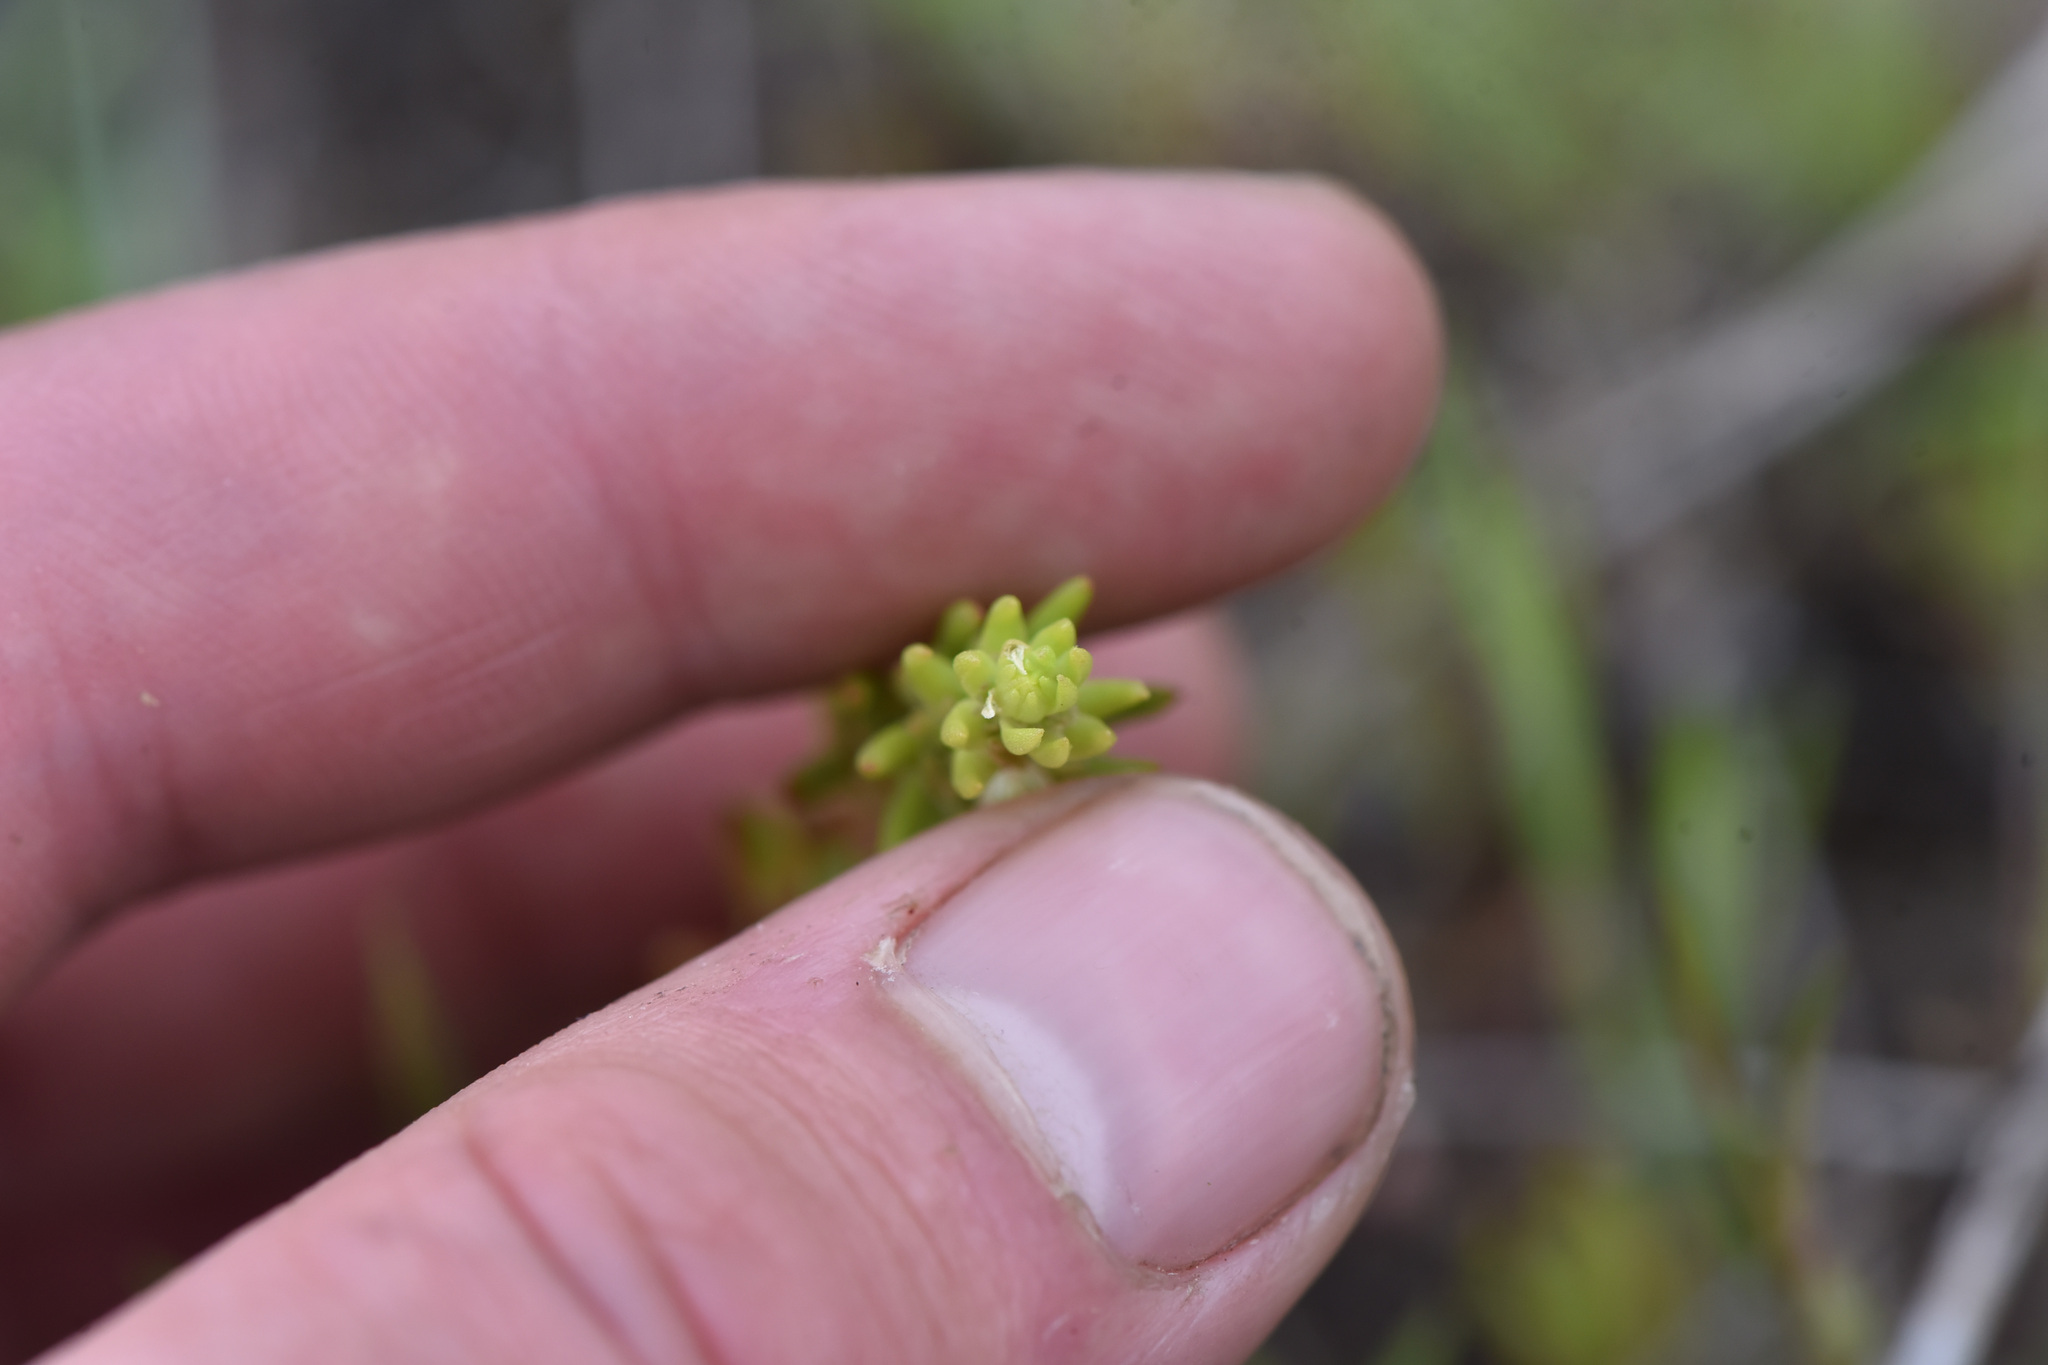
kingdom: Plantae
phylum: Tracheophyta
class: Magnoliopsida
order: Saxifragales
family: Crassulaceae
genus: Sedum
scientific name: Sedum stenopetalum
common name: Narrow-petaled stonecrop
